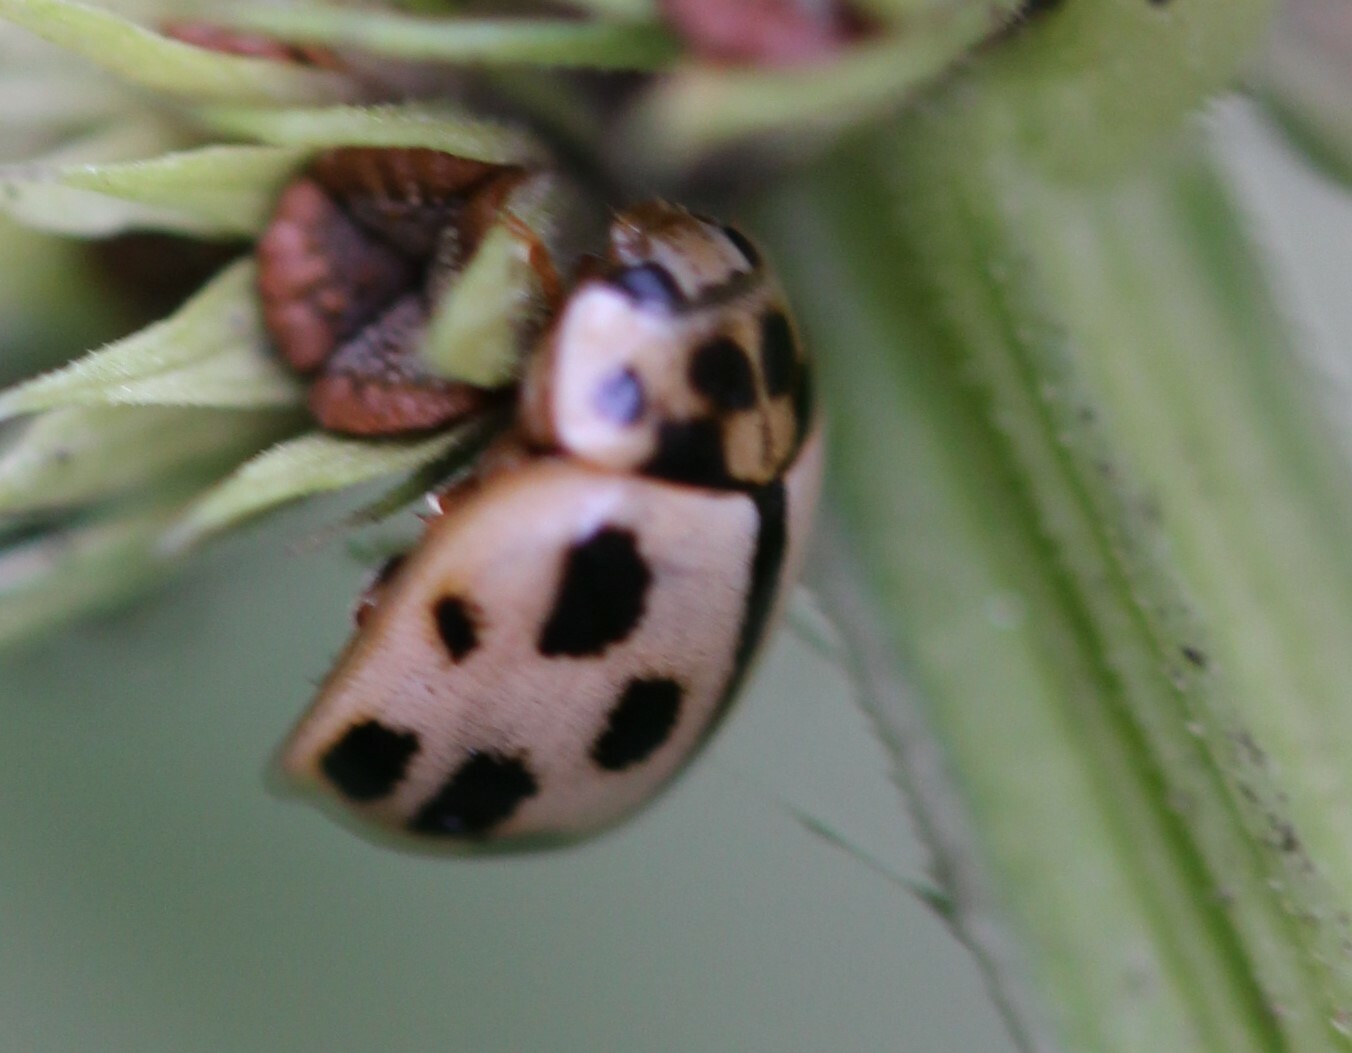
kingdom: Animalia
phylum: Arthropoda
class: Insecta
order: Coleoptera
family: Coccinellidae
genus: Propylaea
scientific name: Propylaea quatuordecimpunctata
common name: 14-spotted ladybird beetle
